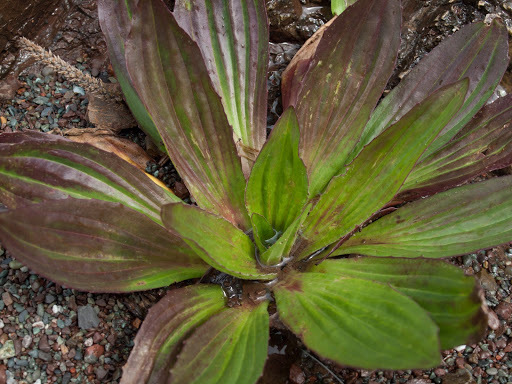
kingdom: Plantae
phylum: Tracheophyta
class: Magnoliopsida
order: Lamiales
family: Plantaginaceae
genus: Plantago
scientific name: Plantago subnuda
